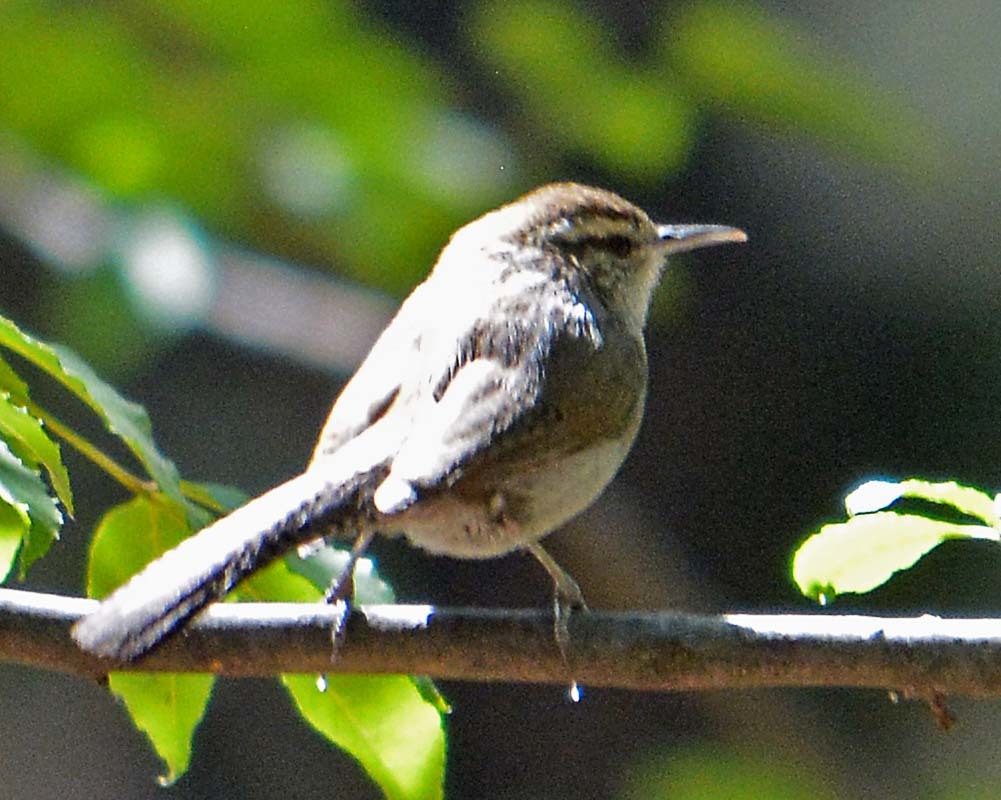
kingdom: Animalia
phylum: Chordata
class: Aves
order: Passeriformes
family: Troglodytidae
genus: Thryomanes
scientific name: Thryomanes bewickii
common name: Bewick's wren
